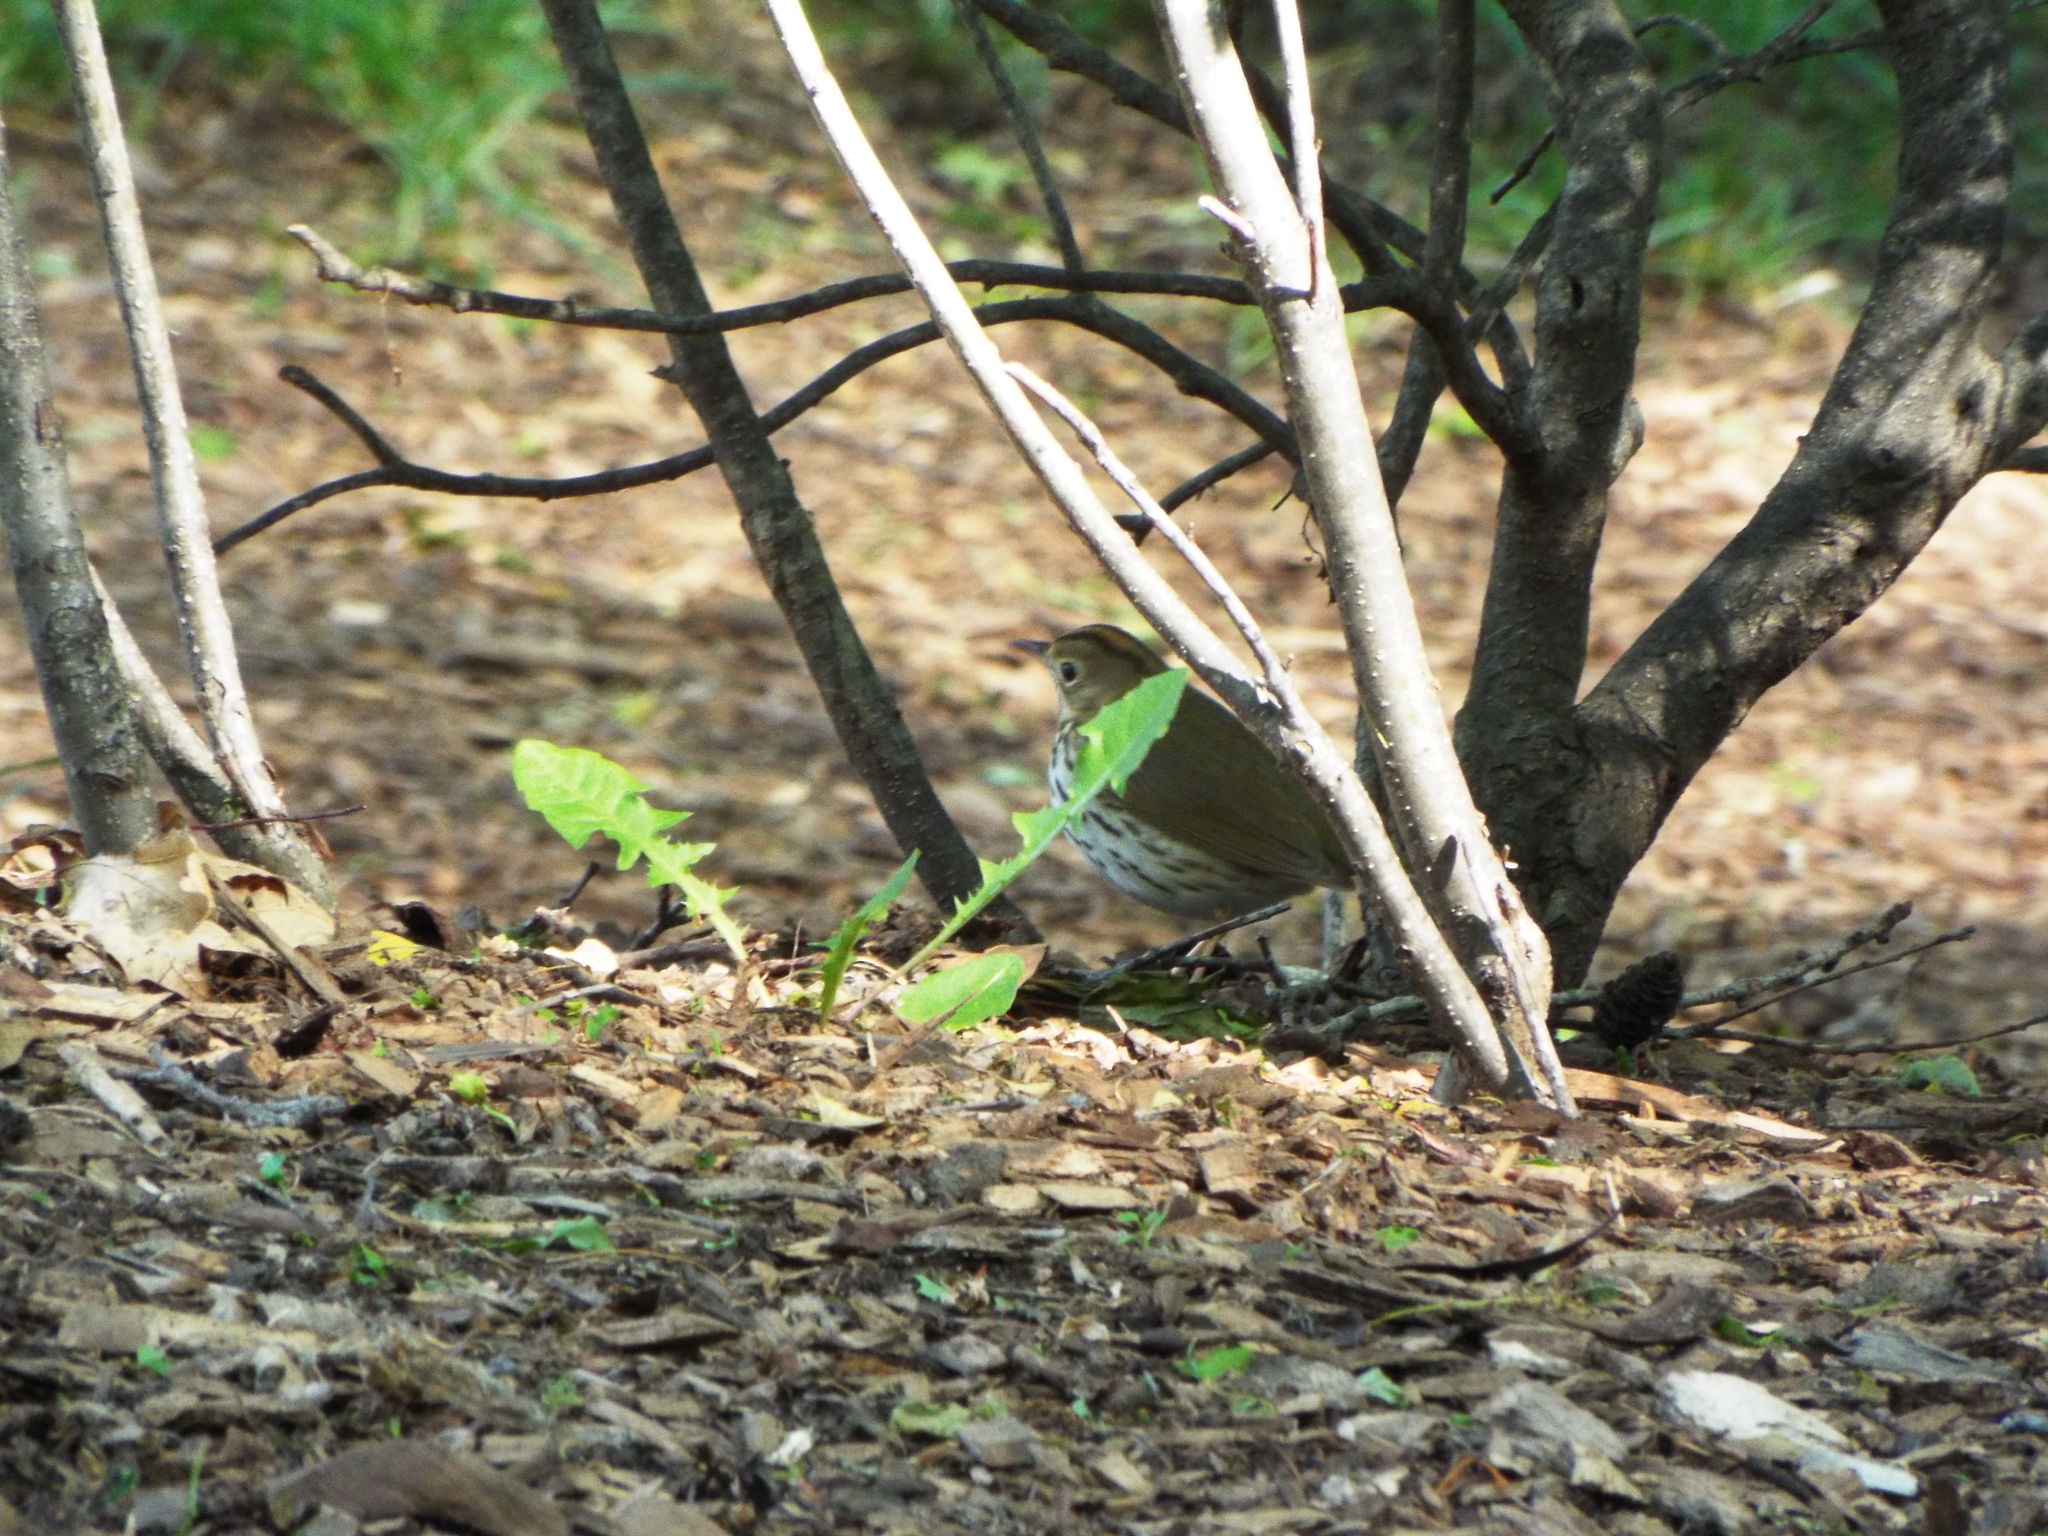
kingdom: Animalia
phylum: Chordata
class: Aves
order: Passeriformes
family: Parulidae
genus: Seiurus
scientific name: Seiurus aurocapilla
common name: Ovenbird
